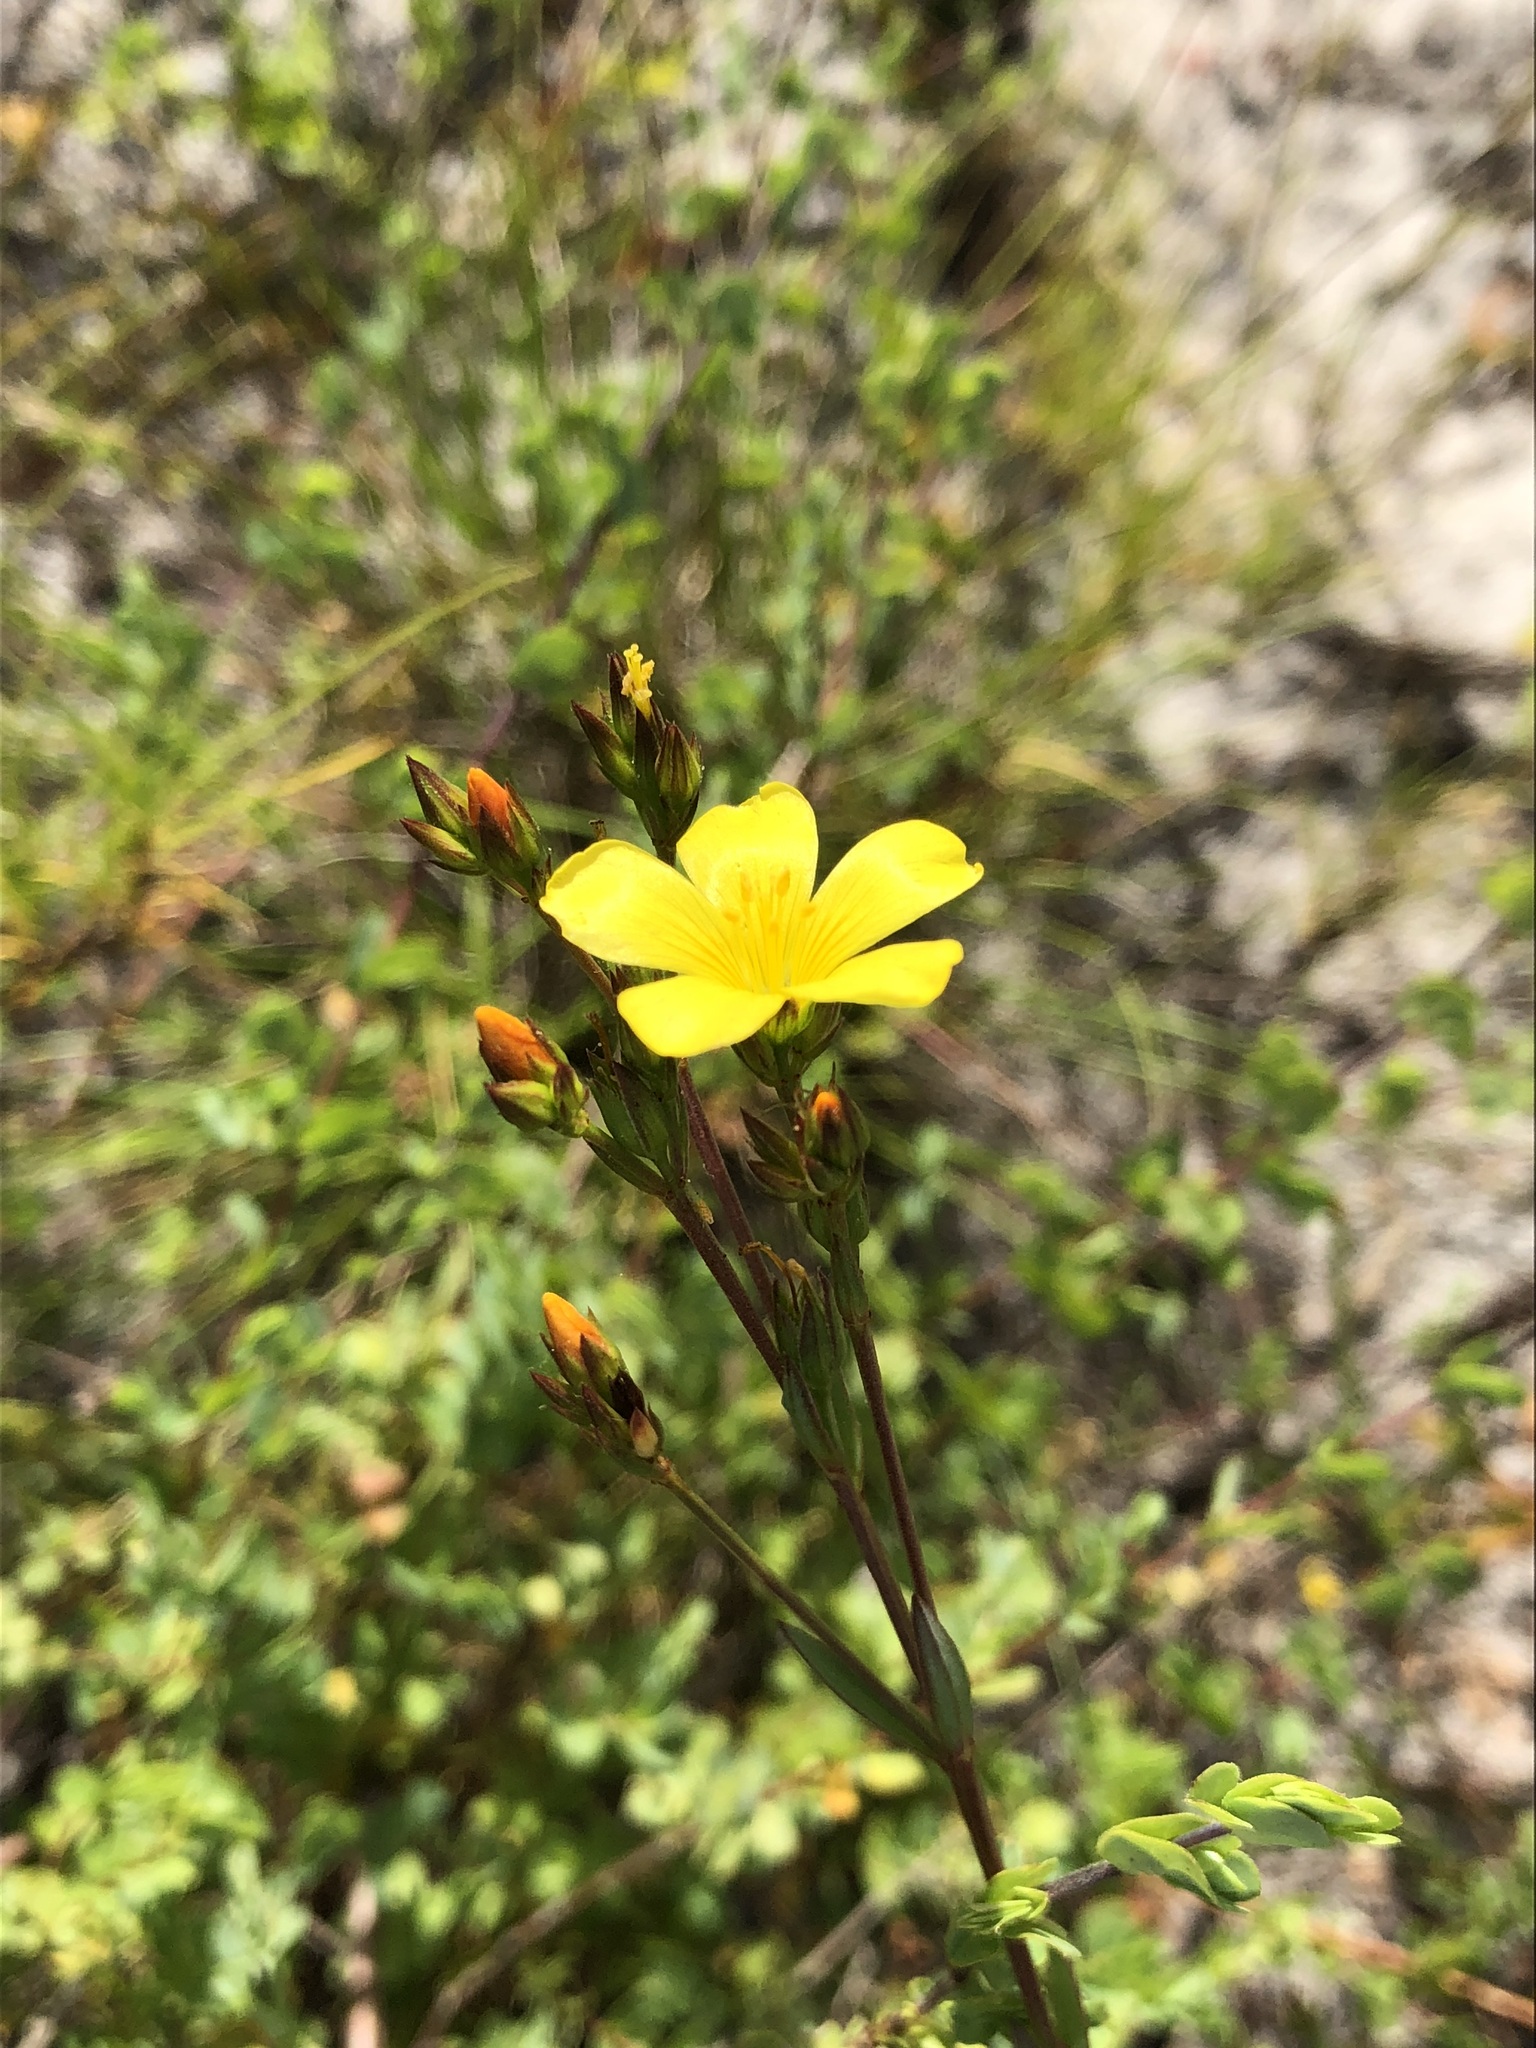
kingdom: Plantae
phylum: Tracheophyta
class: Magnoliopsida
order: Malpighiales
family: Linaceae
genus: Linum
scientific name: Linum africanum
